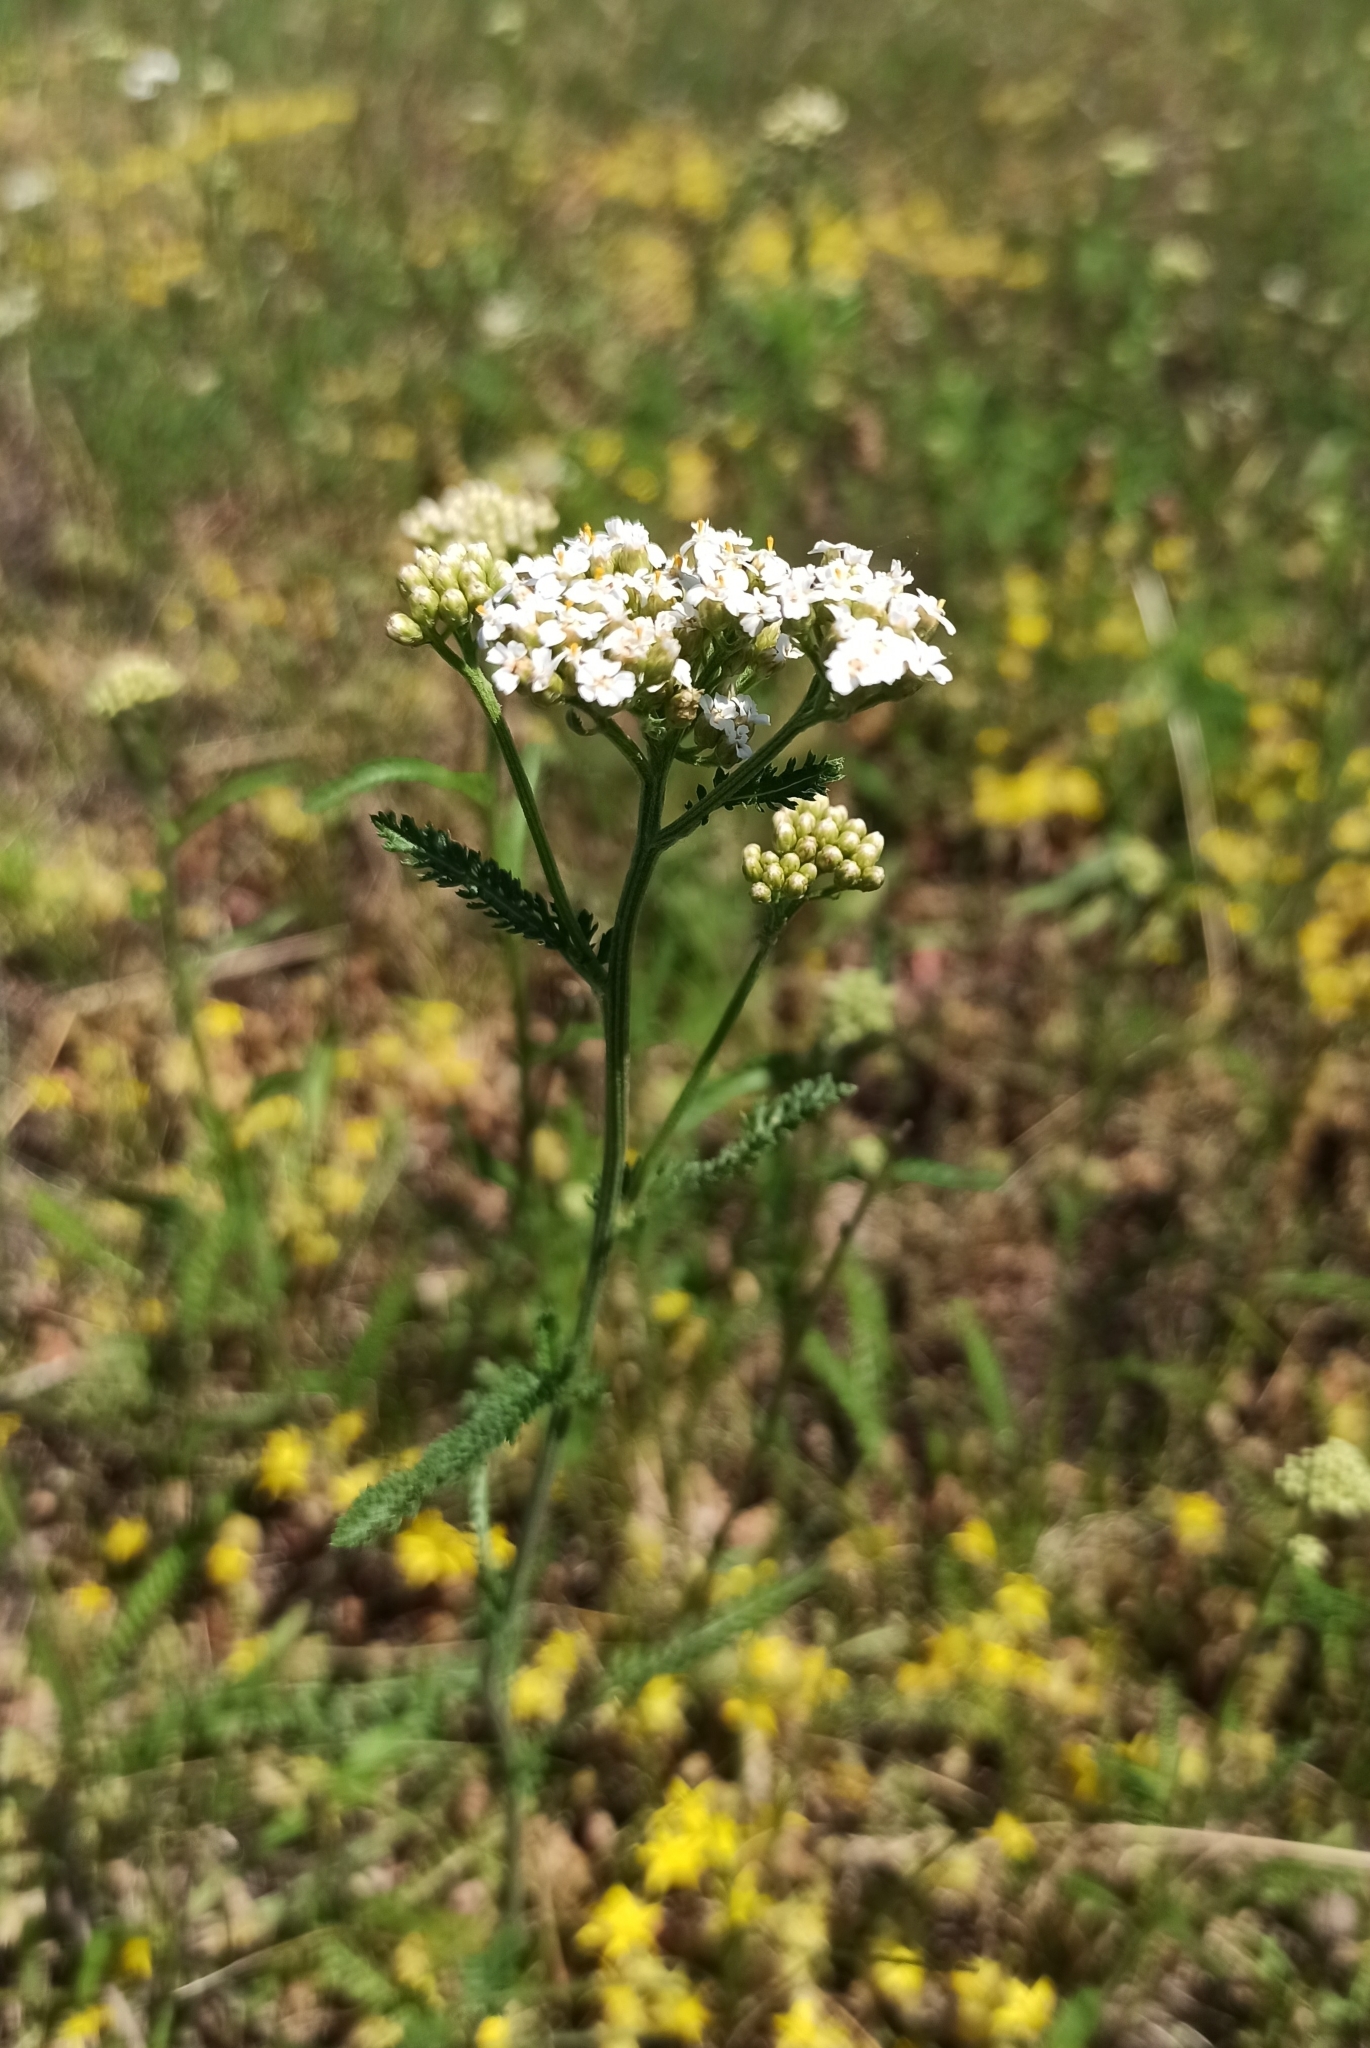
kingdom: Plantae
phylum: Tracheophyta
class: Magnoliopsida
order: Asterales
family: Asteraceae
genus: Achillea
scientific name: Achillea millefolium
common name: Yarrow
